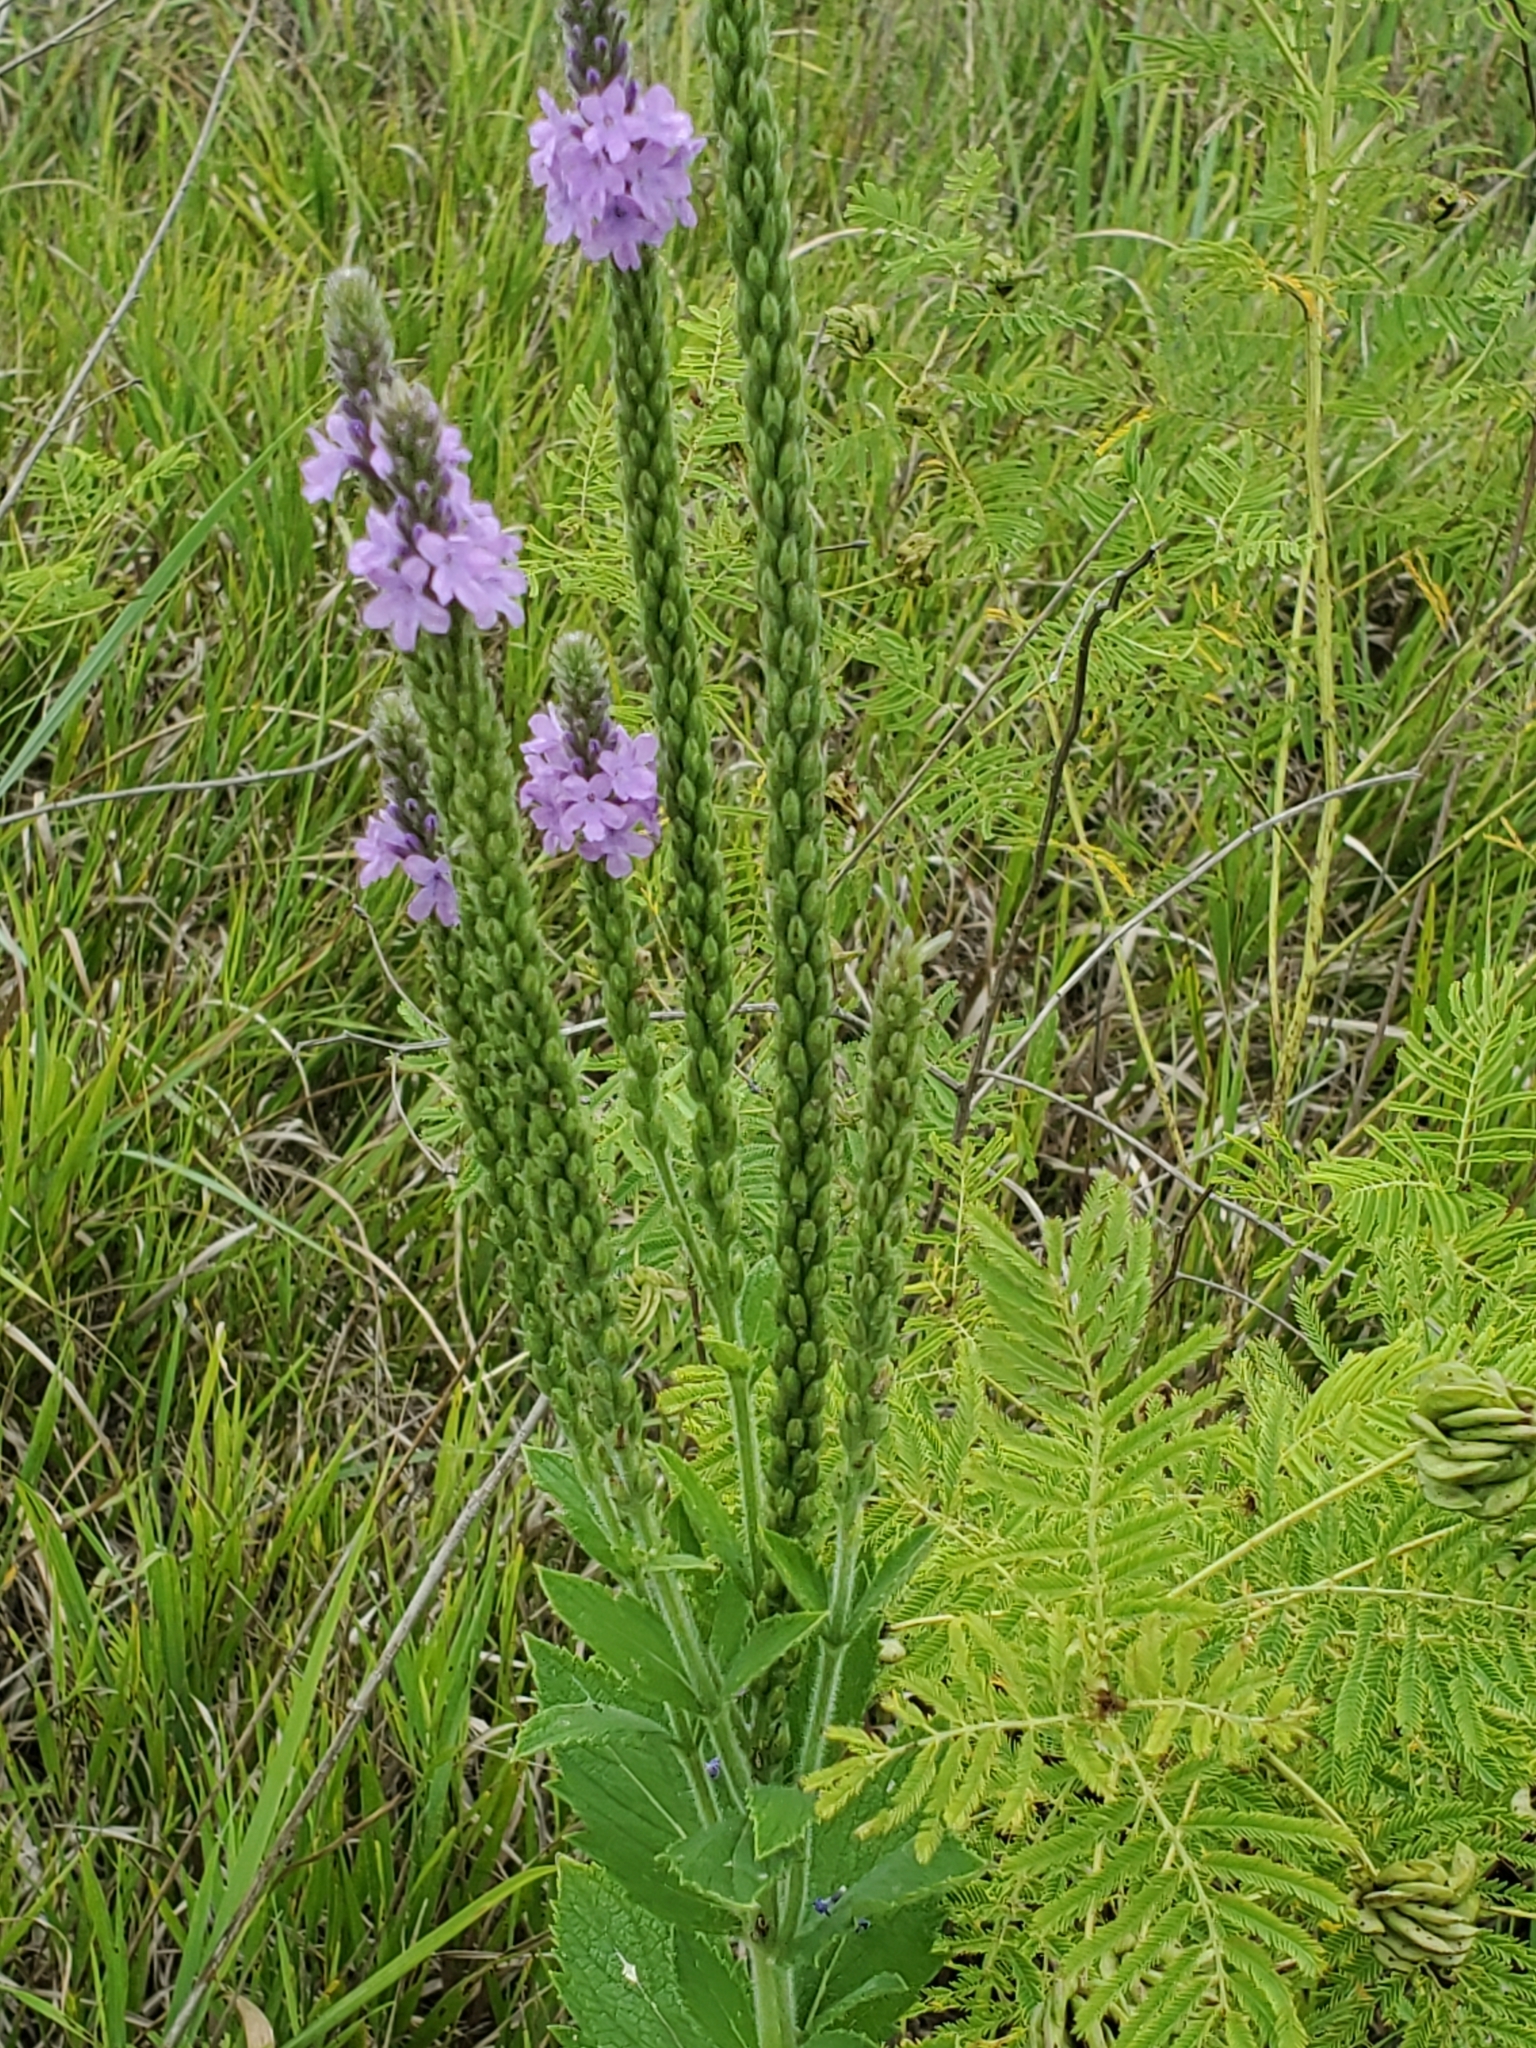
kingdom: Plantae
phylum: Tracheophyta
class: Magnoliopsida
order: Lamiales
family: Verbenaceae
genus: Verbena
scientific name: Verbena stricta
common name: Hoary vervain
